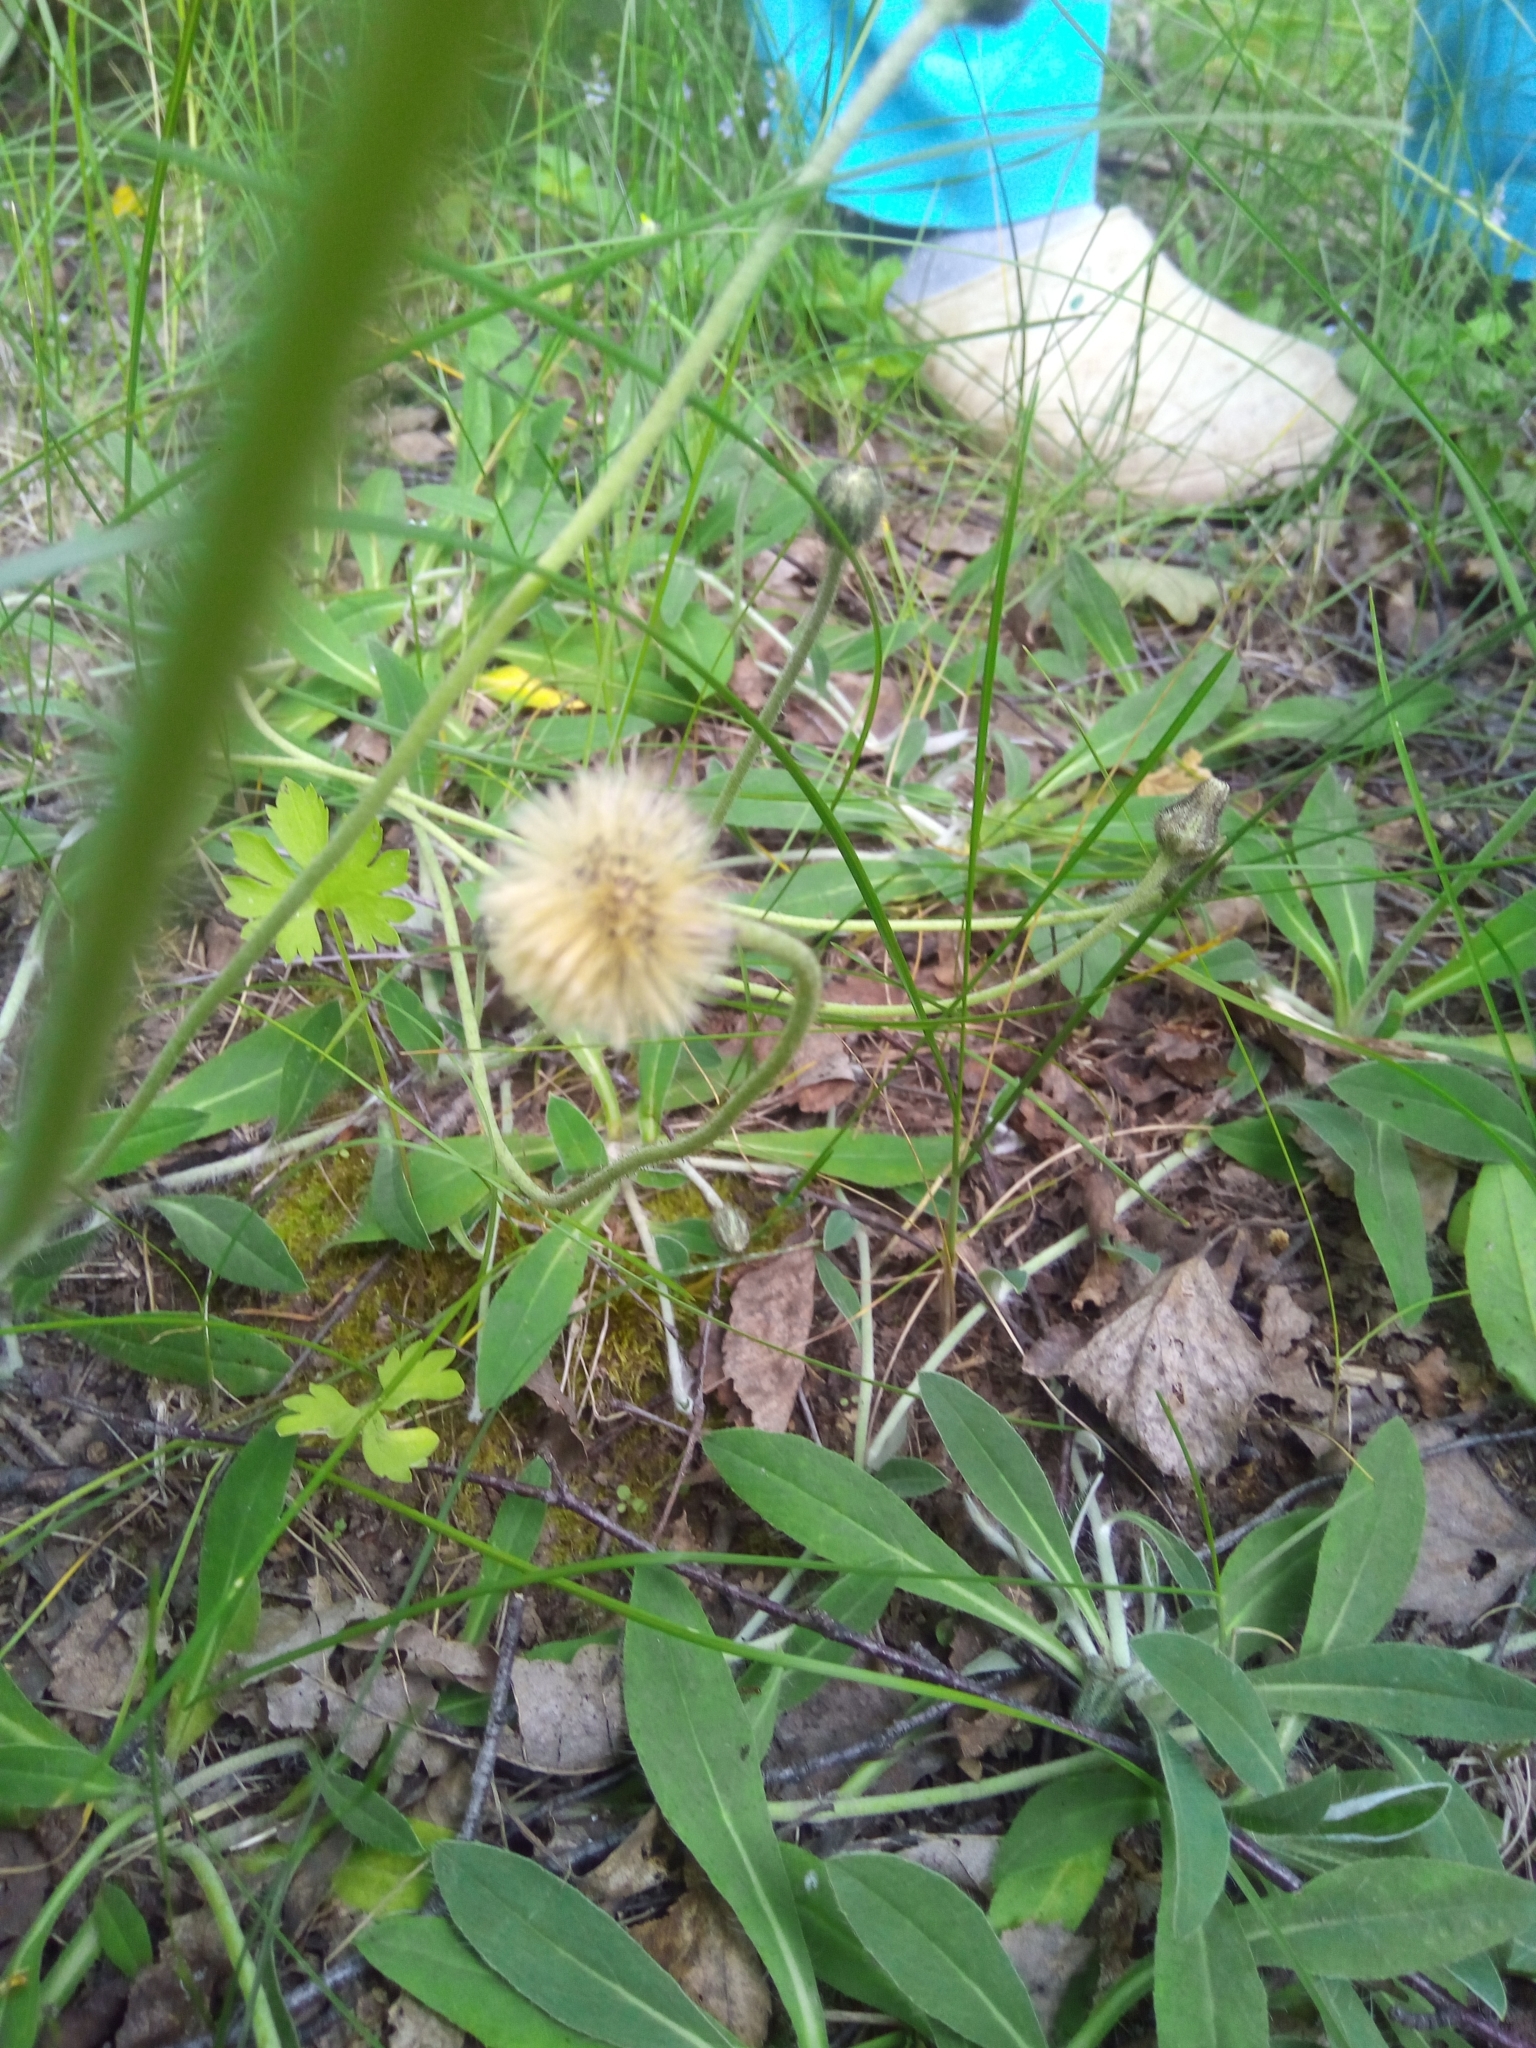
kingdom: Plantae
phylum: Tracheophyta
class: Magnoliopsida
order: Asterales
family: Asteraceae
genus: Pilosella
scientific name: Pilosella officinarum
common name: Mouse-ear hawkweed
